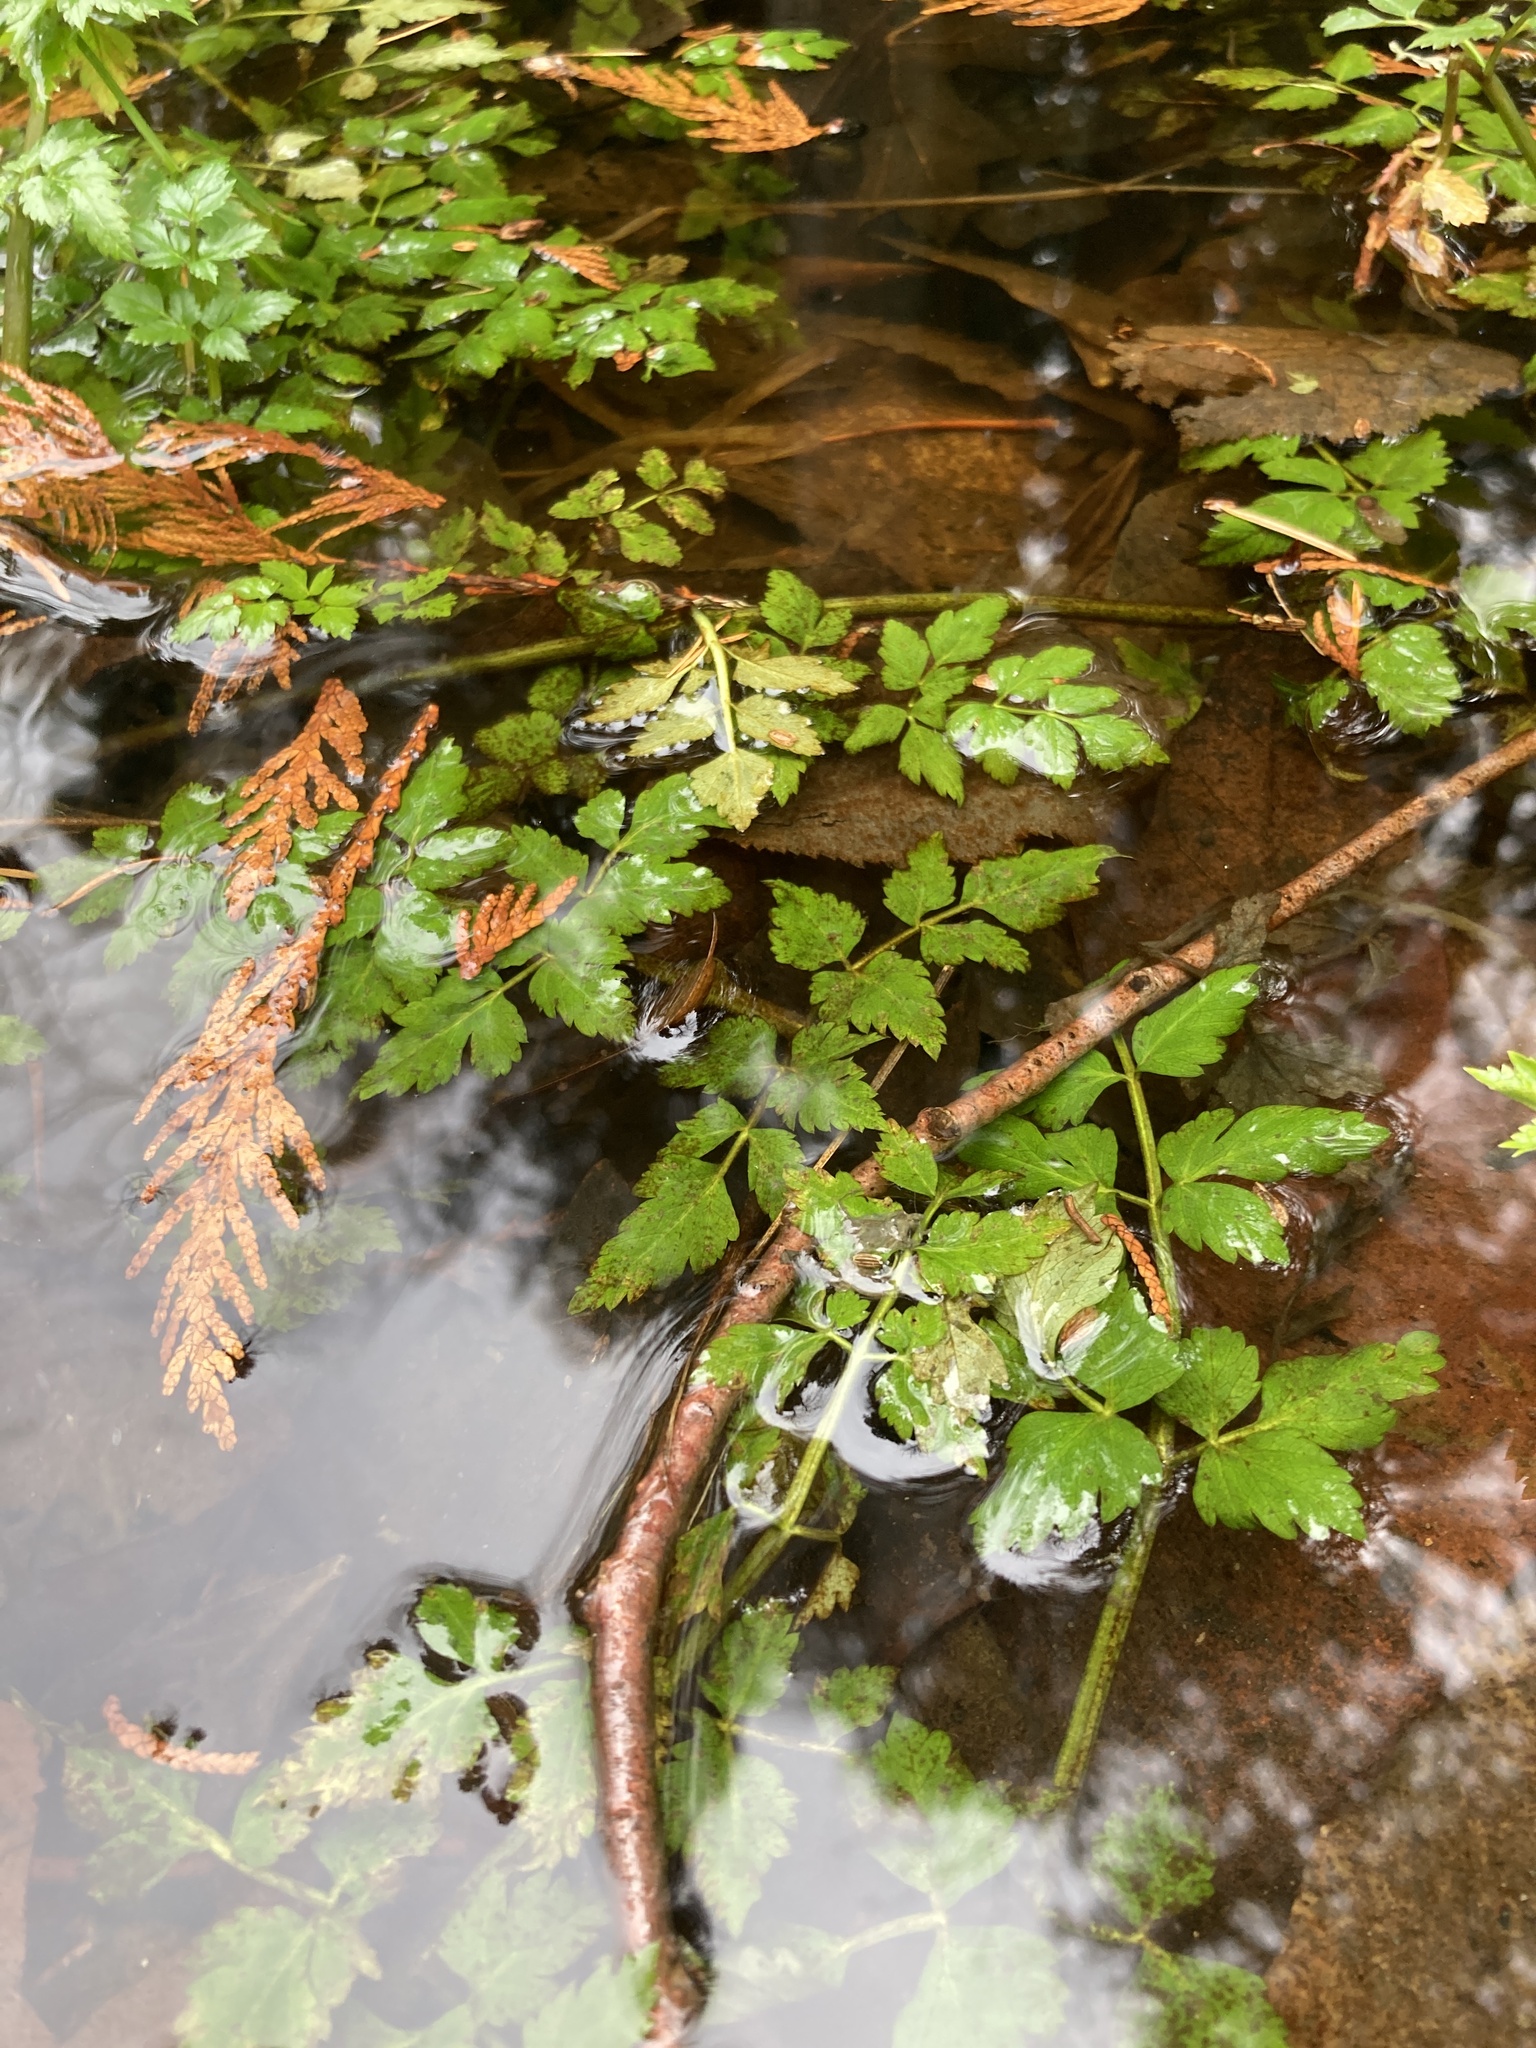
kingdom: Plantae
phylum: Tracheophyta
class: Magnoliopsida
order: Apiales
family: Apiaceae
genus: Oenanthe
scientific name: Oenanthe sarmentosa
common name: American water-parsley
